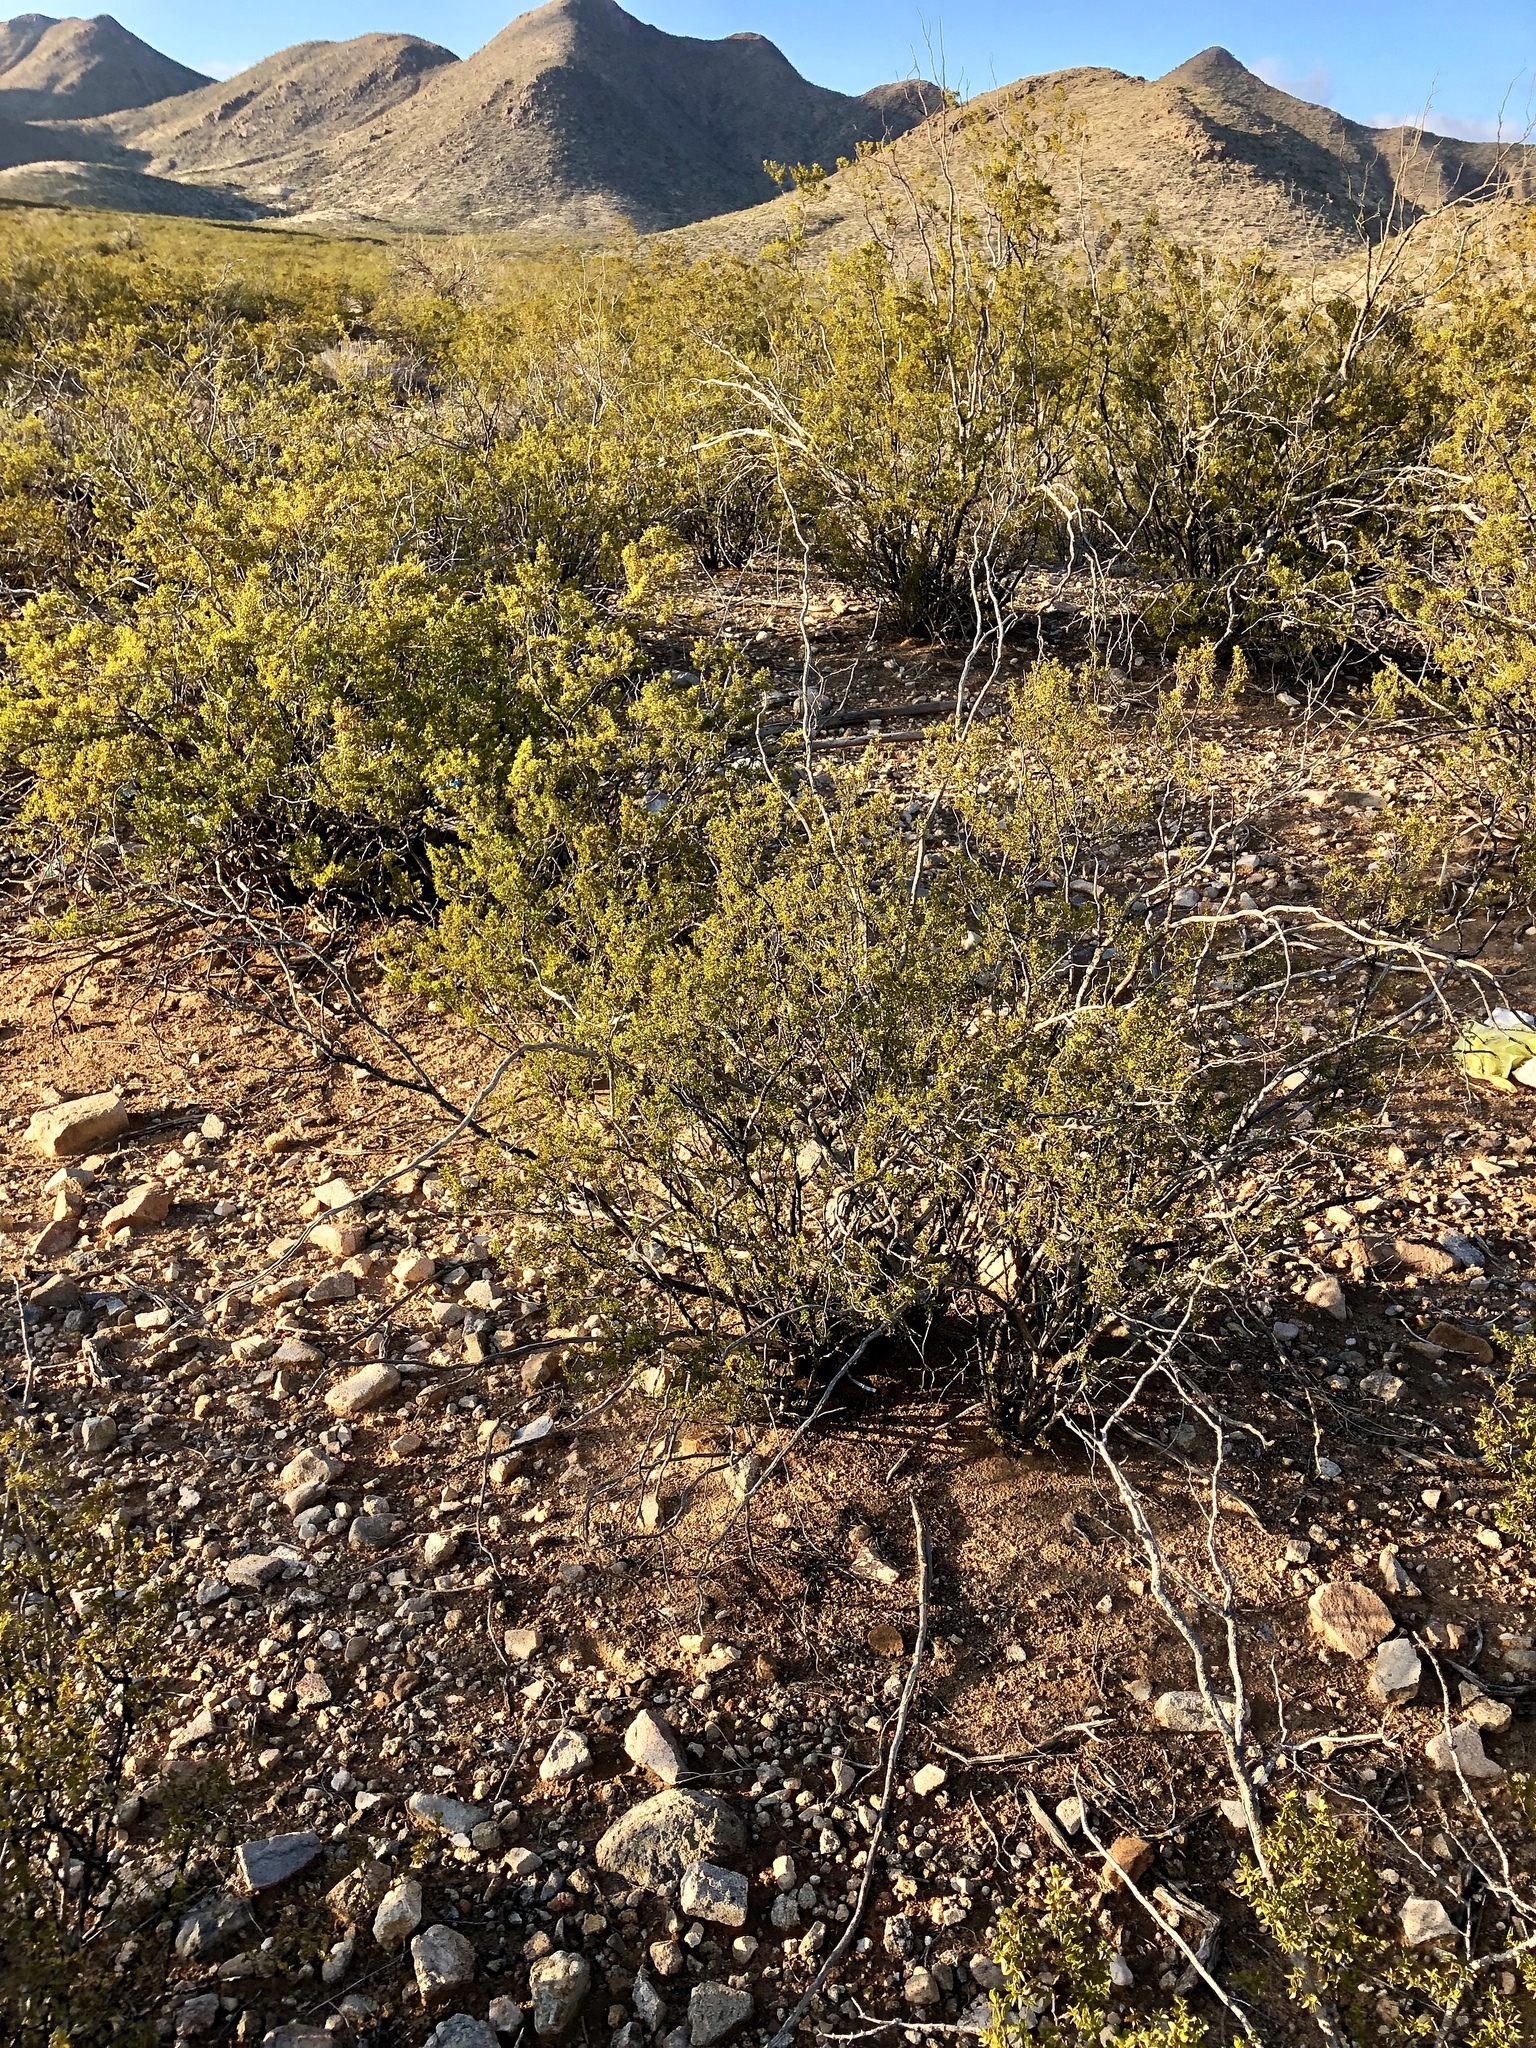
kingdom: Plantae
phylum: Tracheophyta
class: Magnoliopsida
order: Zygophyllales
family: Zygophyllaceae
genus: Larrea
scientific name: Larrea tridentata
